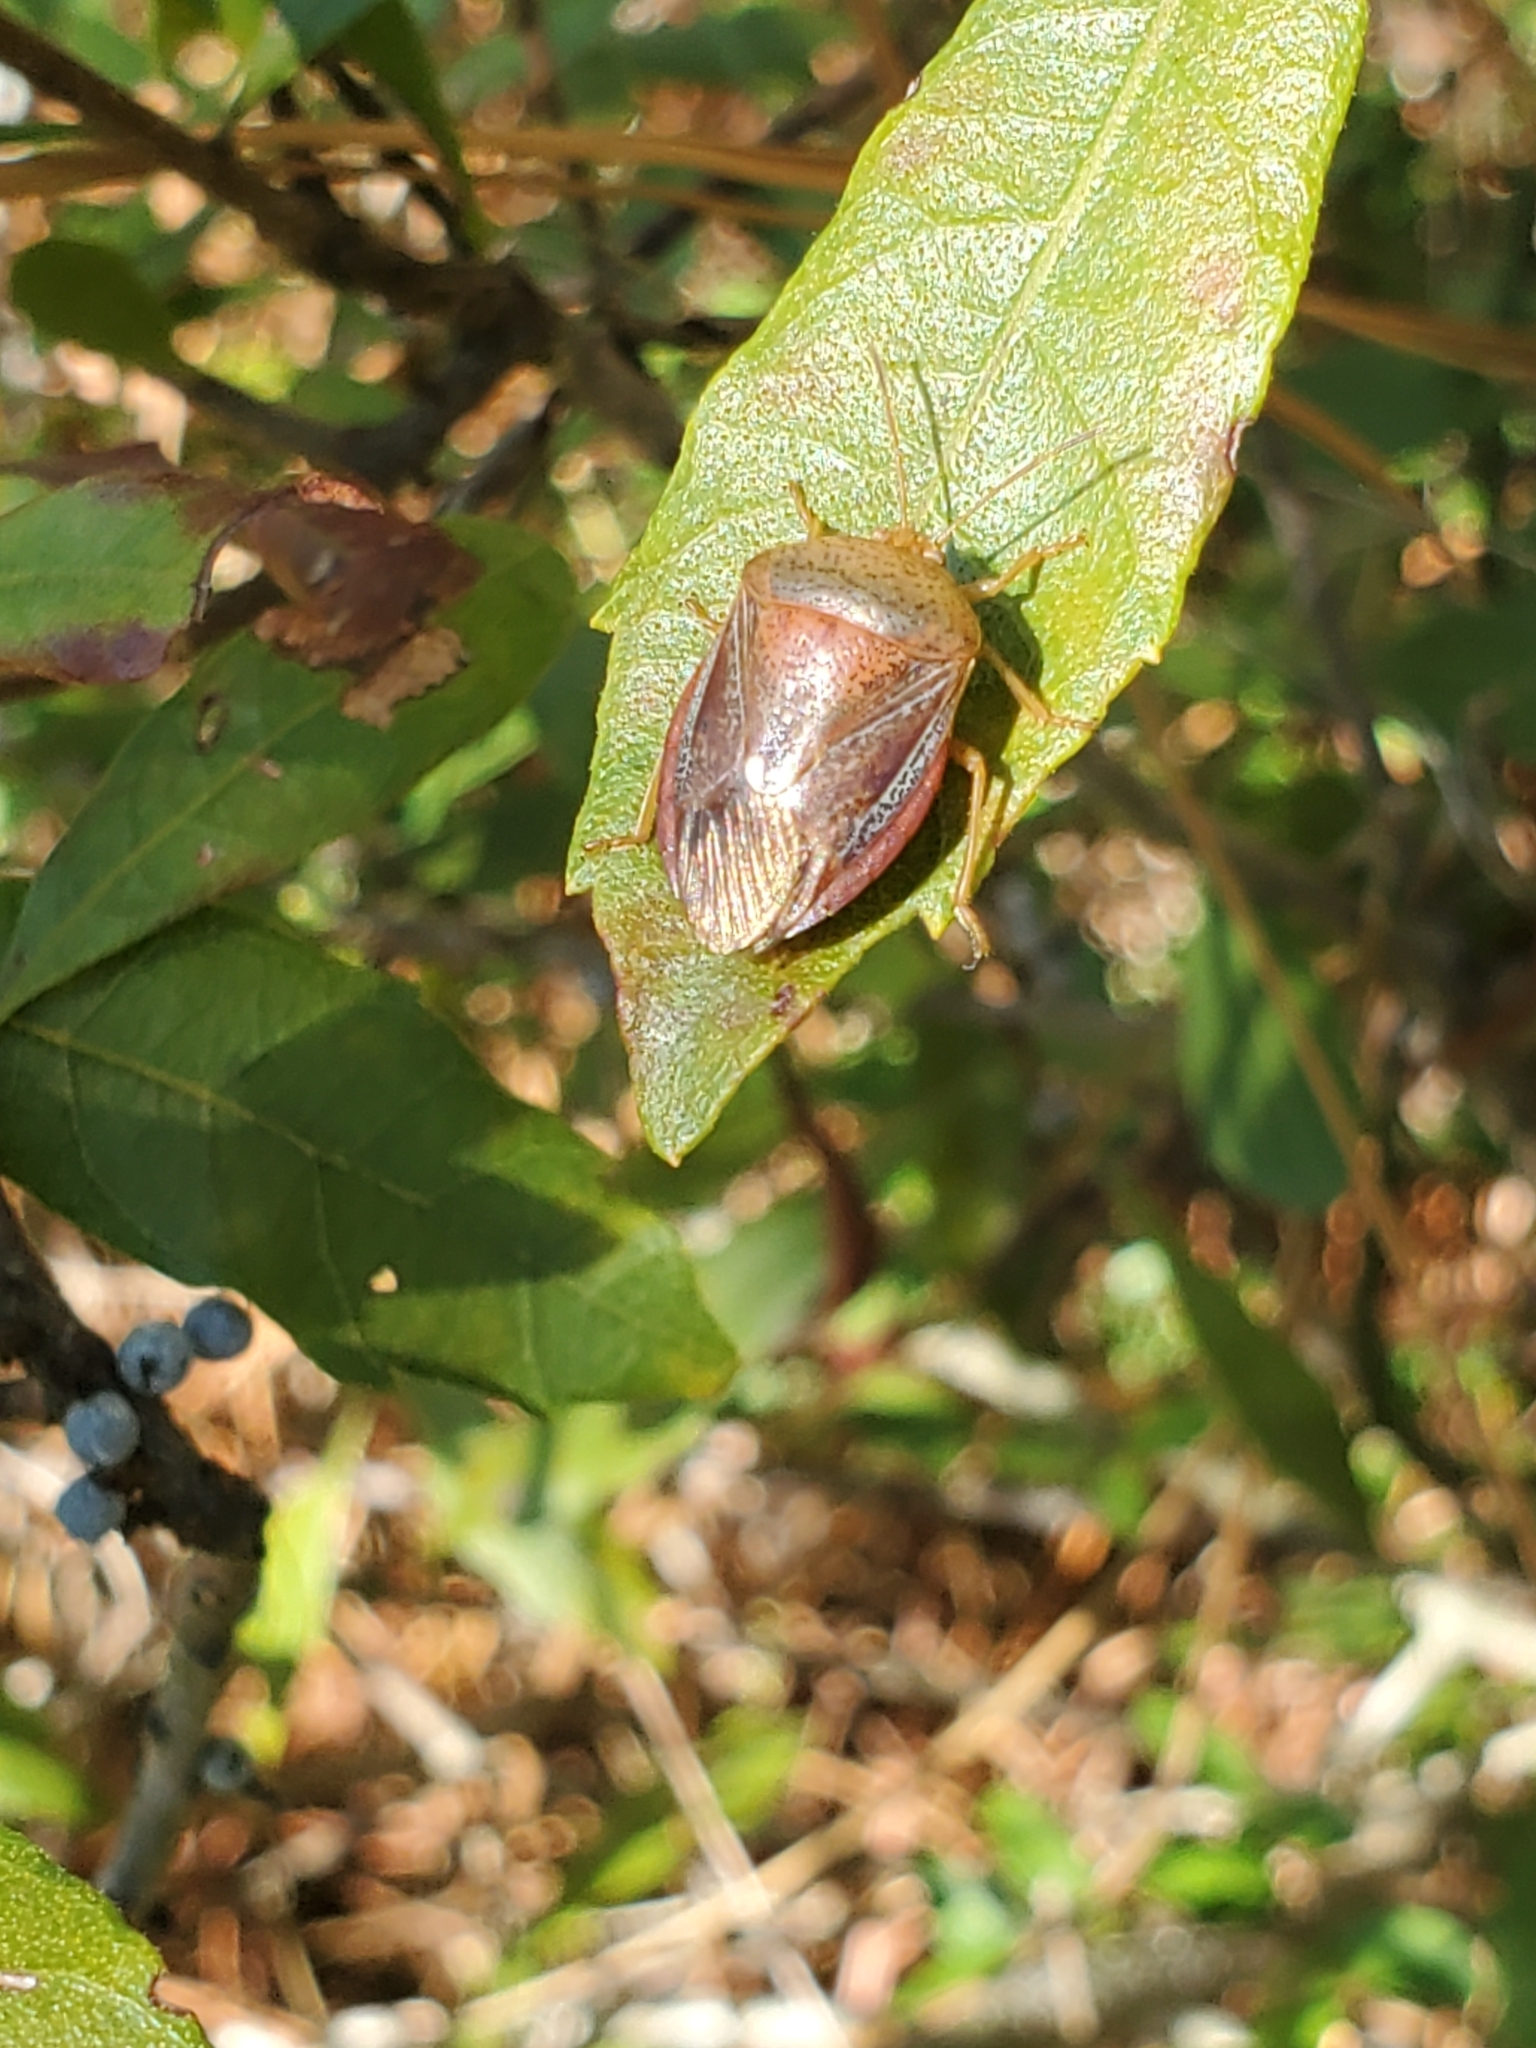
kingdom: Animalia
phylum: Arthropoda
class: Insecta
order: Hemiptera
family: Pentatomidae
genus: Edessa
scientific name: Edessa bifida
